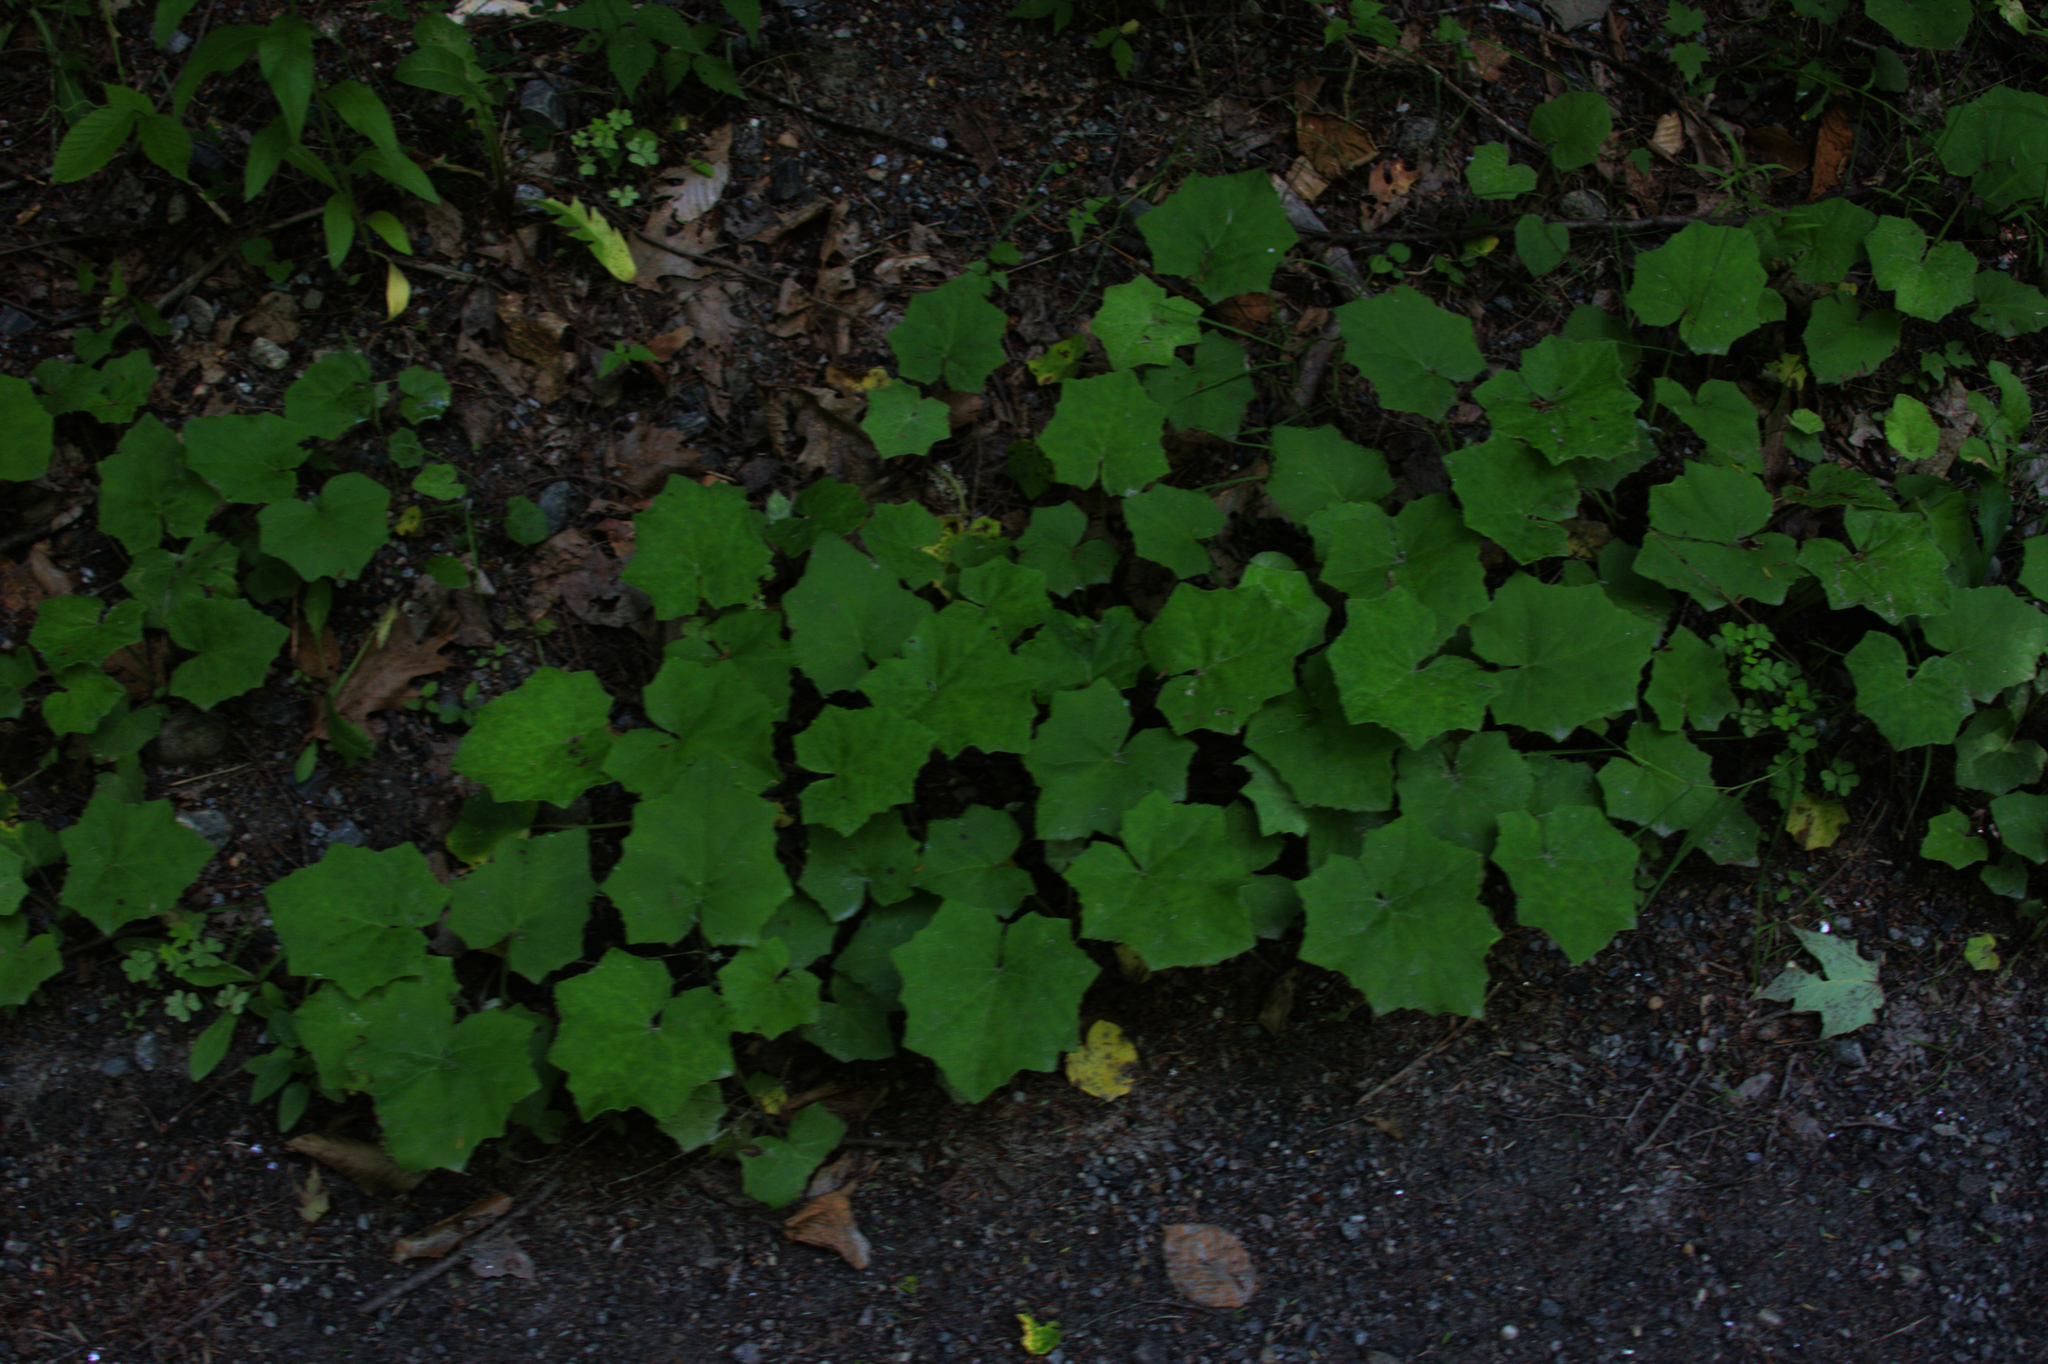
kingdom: Plantae
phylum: Tracheophyta
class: Magnoliopsida
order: Asterales
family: Asteraceae
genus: Tussilago
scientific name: Tussilago farfara
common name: Coltsfoot
